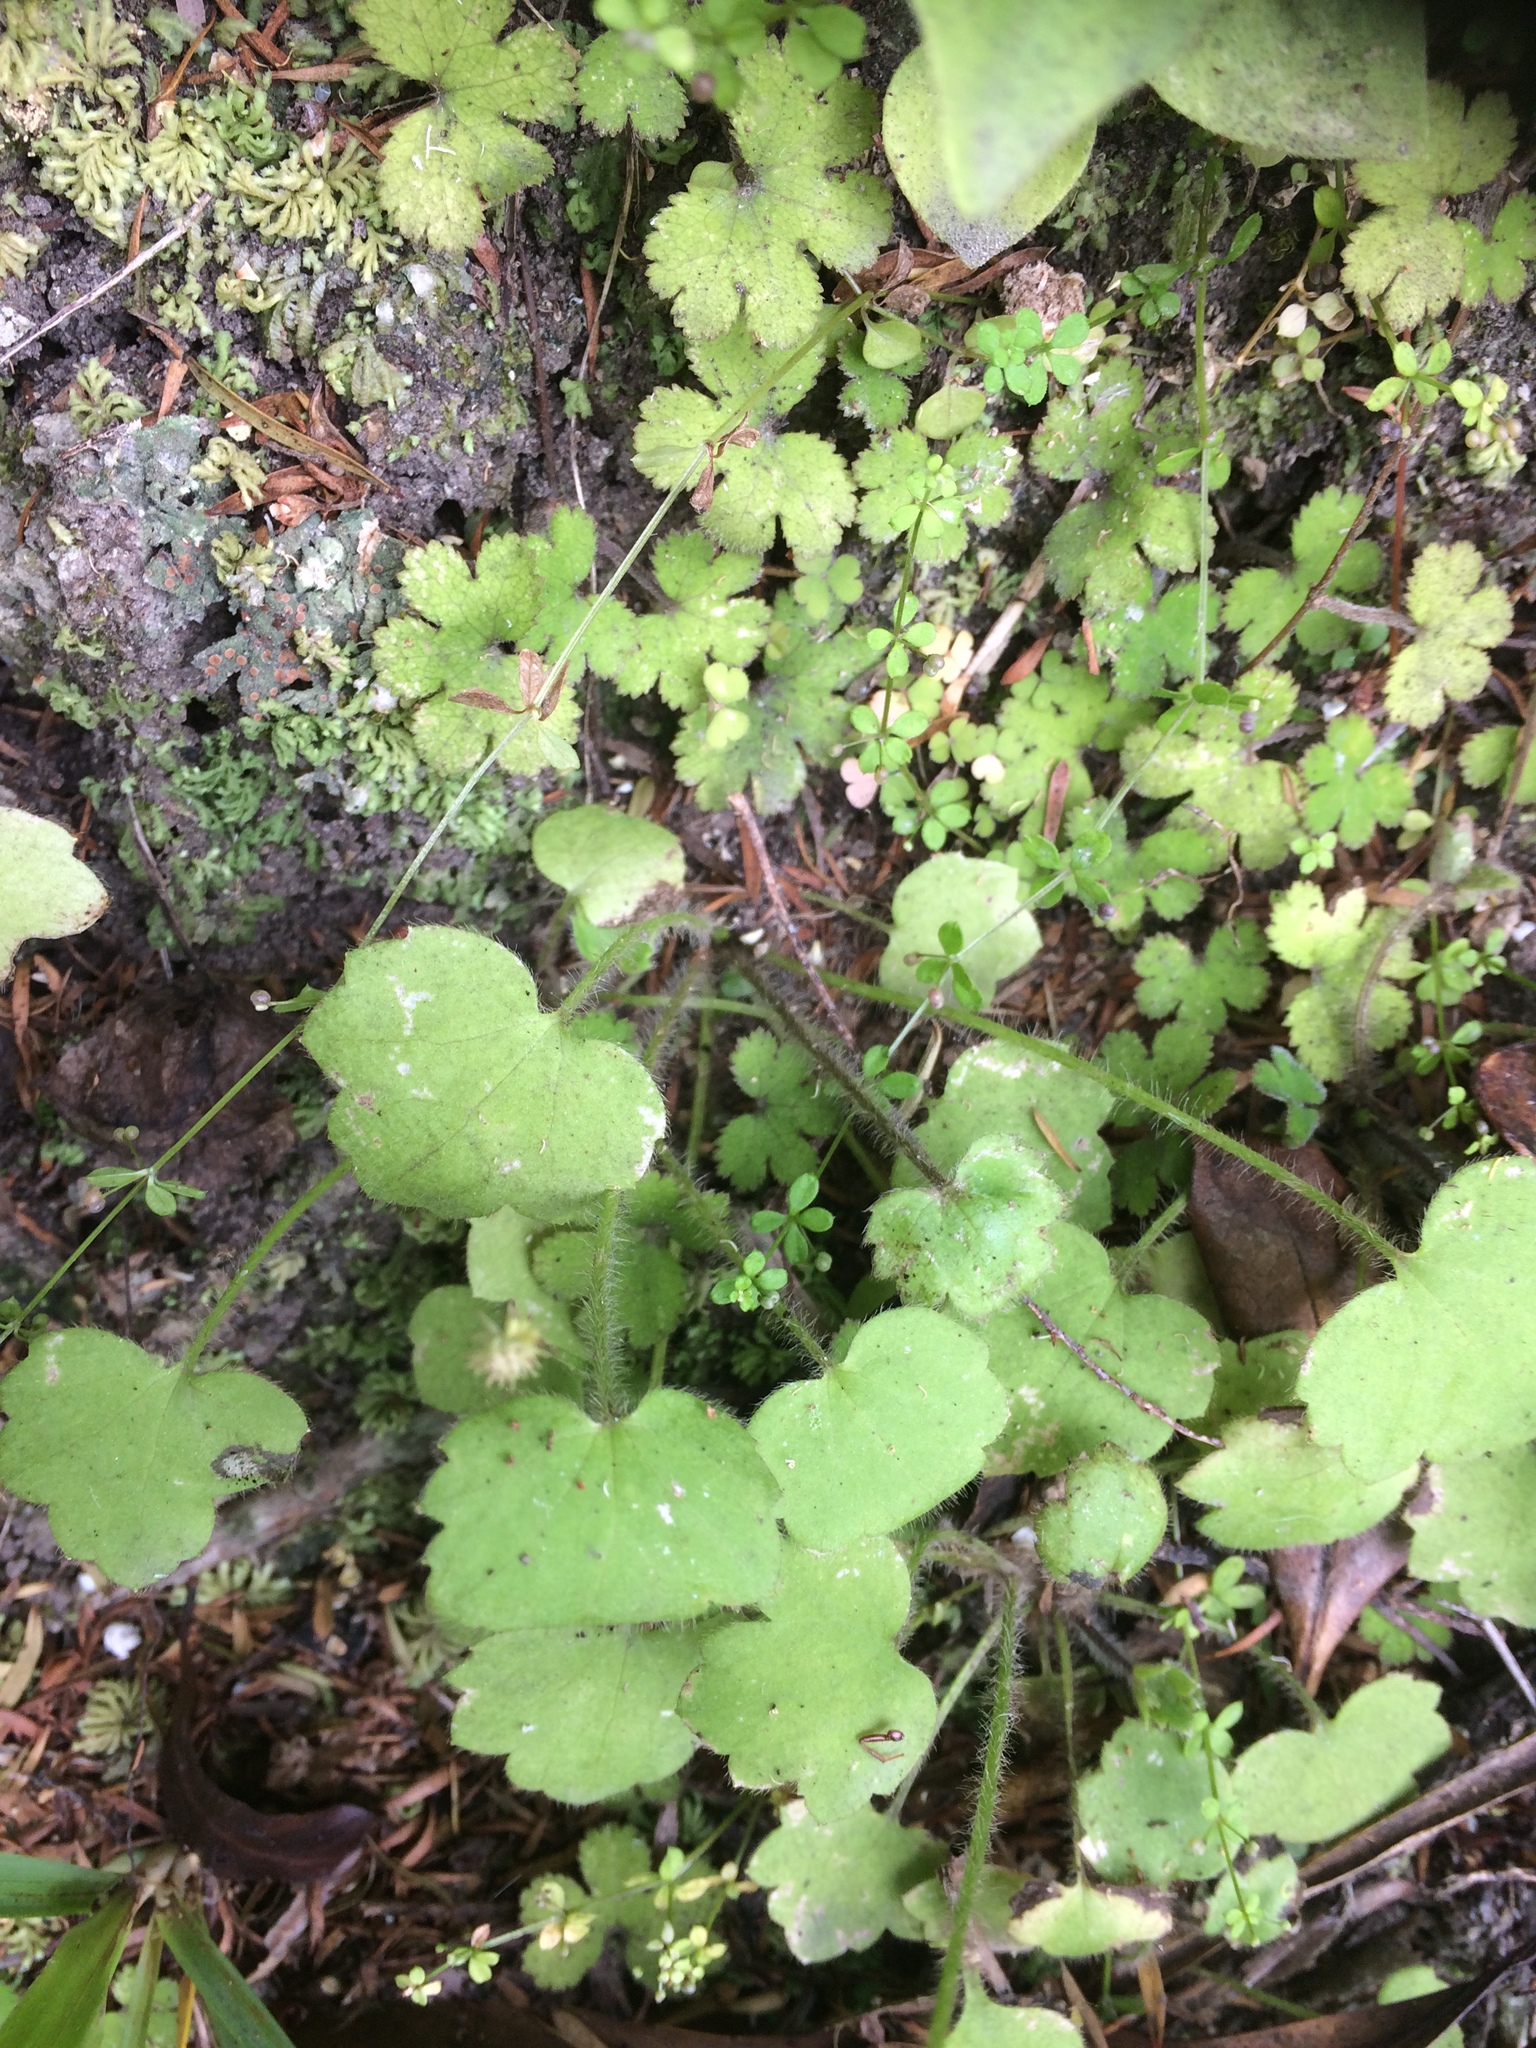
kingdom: Plantae
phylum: Tracheophyta
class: Magnoliopsida
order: Ranunculales
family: Ranunculaceae
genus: Ranunculus
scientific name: Ranunculus reflexus
